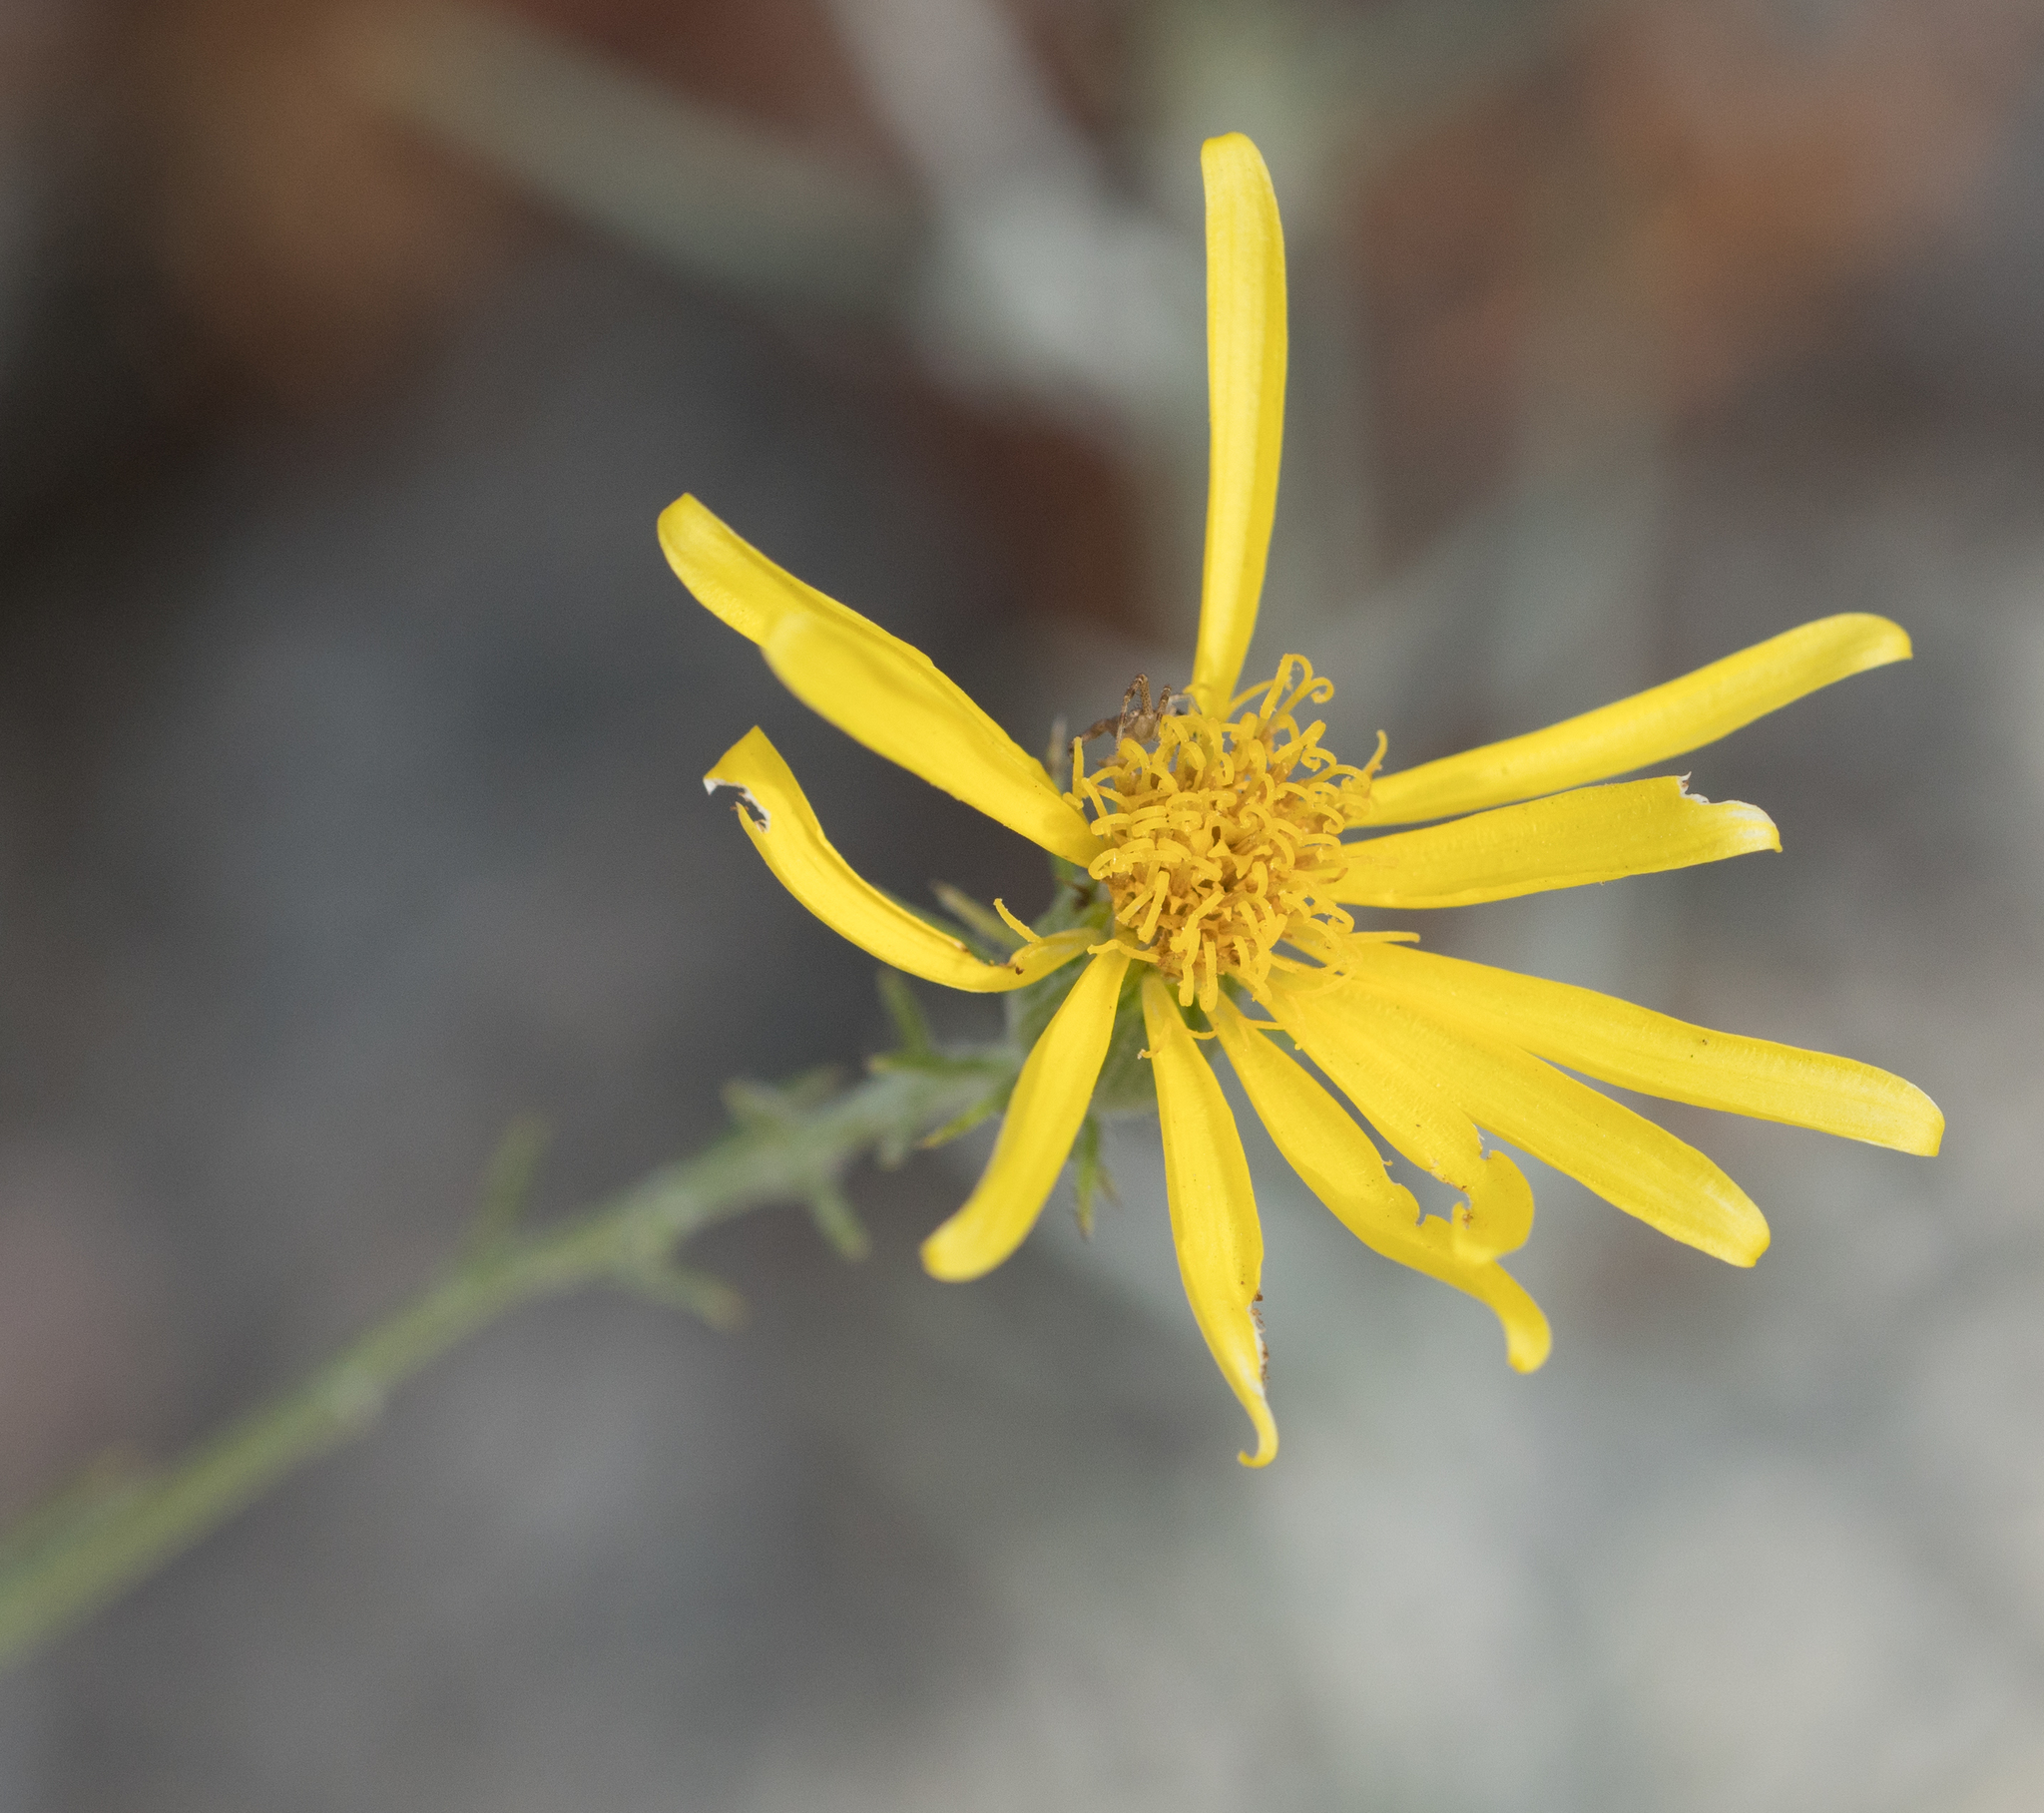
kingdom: Plantae
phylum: Tracheophyta
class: Magnoliopsida
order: Asterales
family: Asteraceae
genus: Senecio
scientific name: Senecio flaccidus
